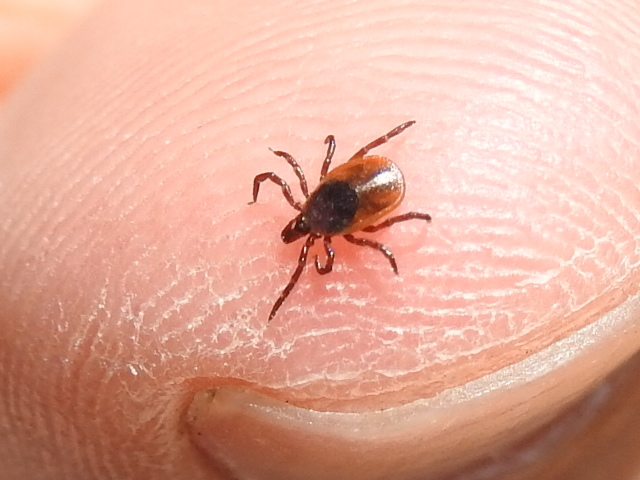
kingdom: Animalia
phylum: Arthropoda
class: Arachnida
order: Ixodida
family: Ixodidae
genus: Ixodes
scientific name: Ixodes scapularis
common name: Black legged tick
